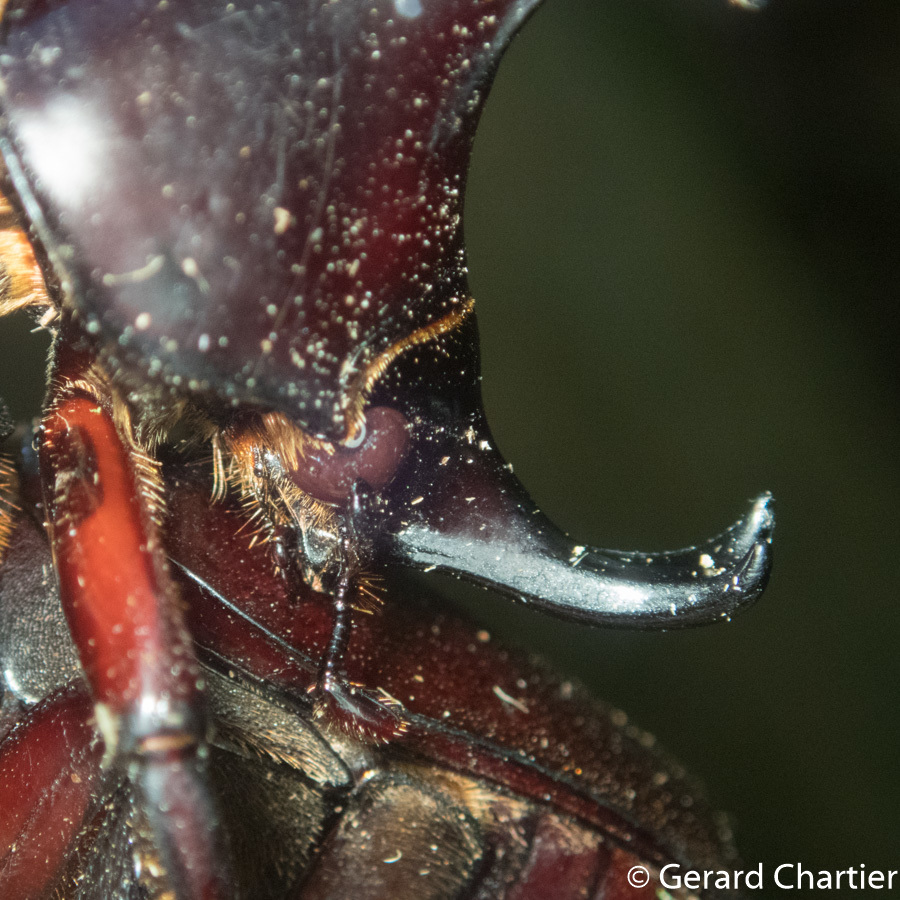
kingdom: Animalia
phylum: Arthropoda
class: Insecta
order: Coleoptera
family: Scarabaeidae
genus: Xylotrupes
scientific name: Xylotrupes socrates
